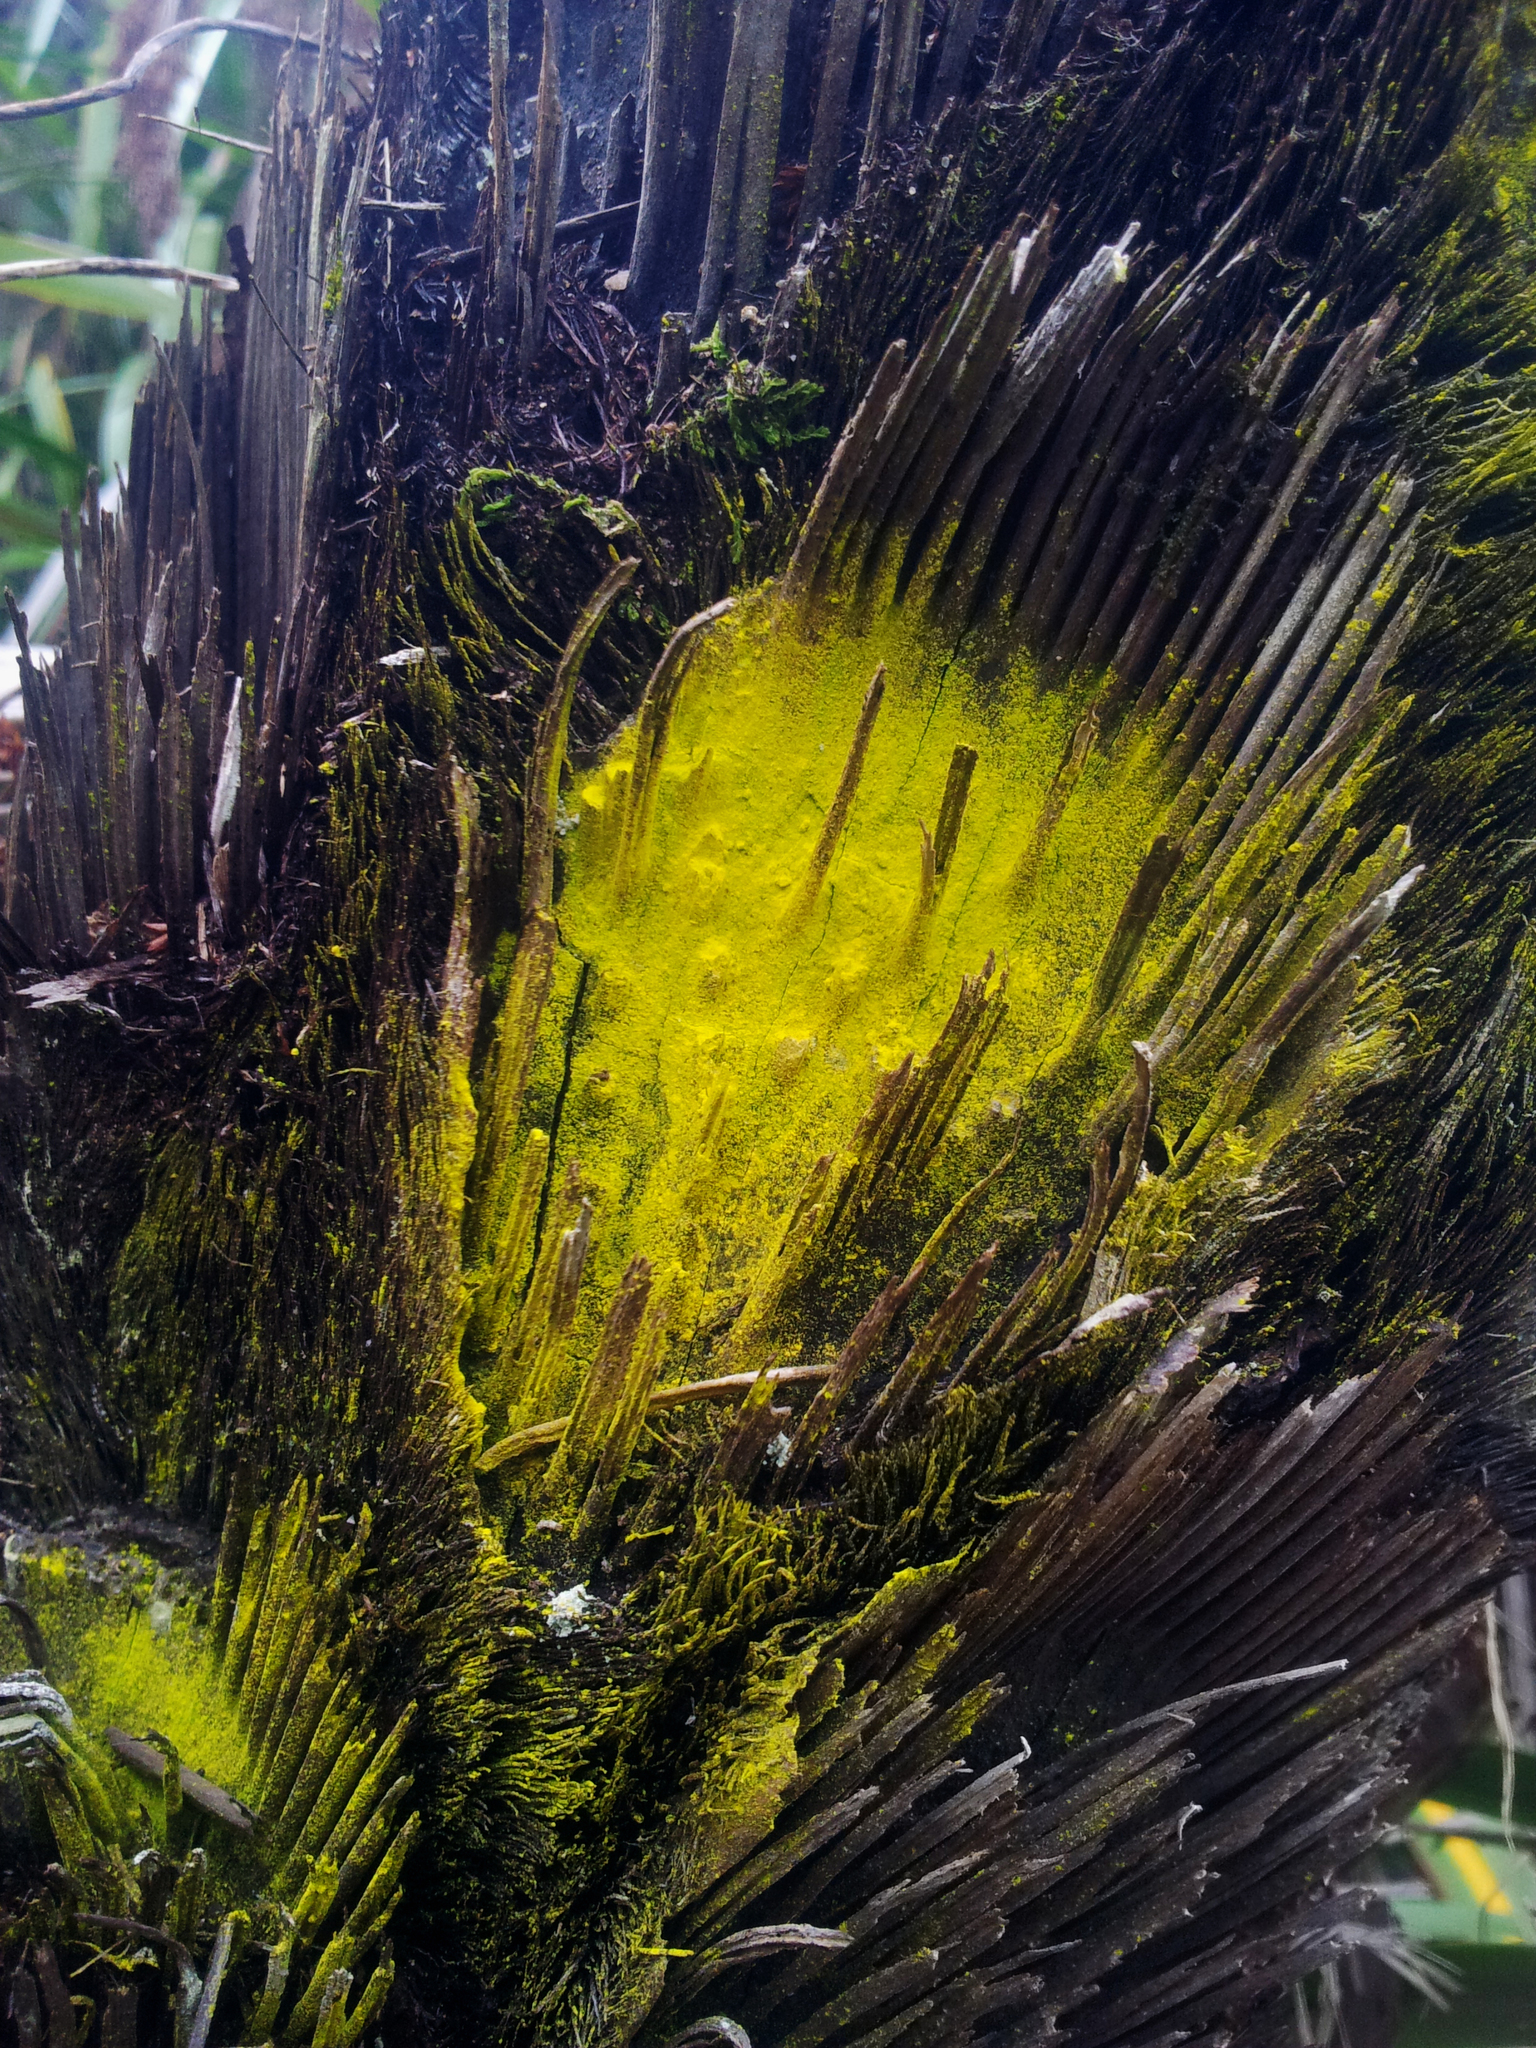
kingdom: Fungi
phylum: Ascomycota
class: Arthoniomycetes
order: Arthoniales
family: Chrysotrichaceae
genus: Chrysothrix
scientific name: Chrysothrix xanthina
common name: Common gold-dust
